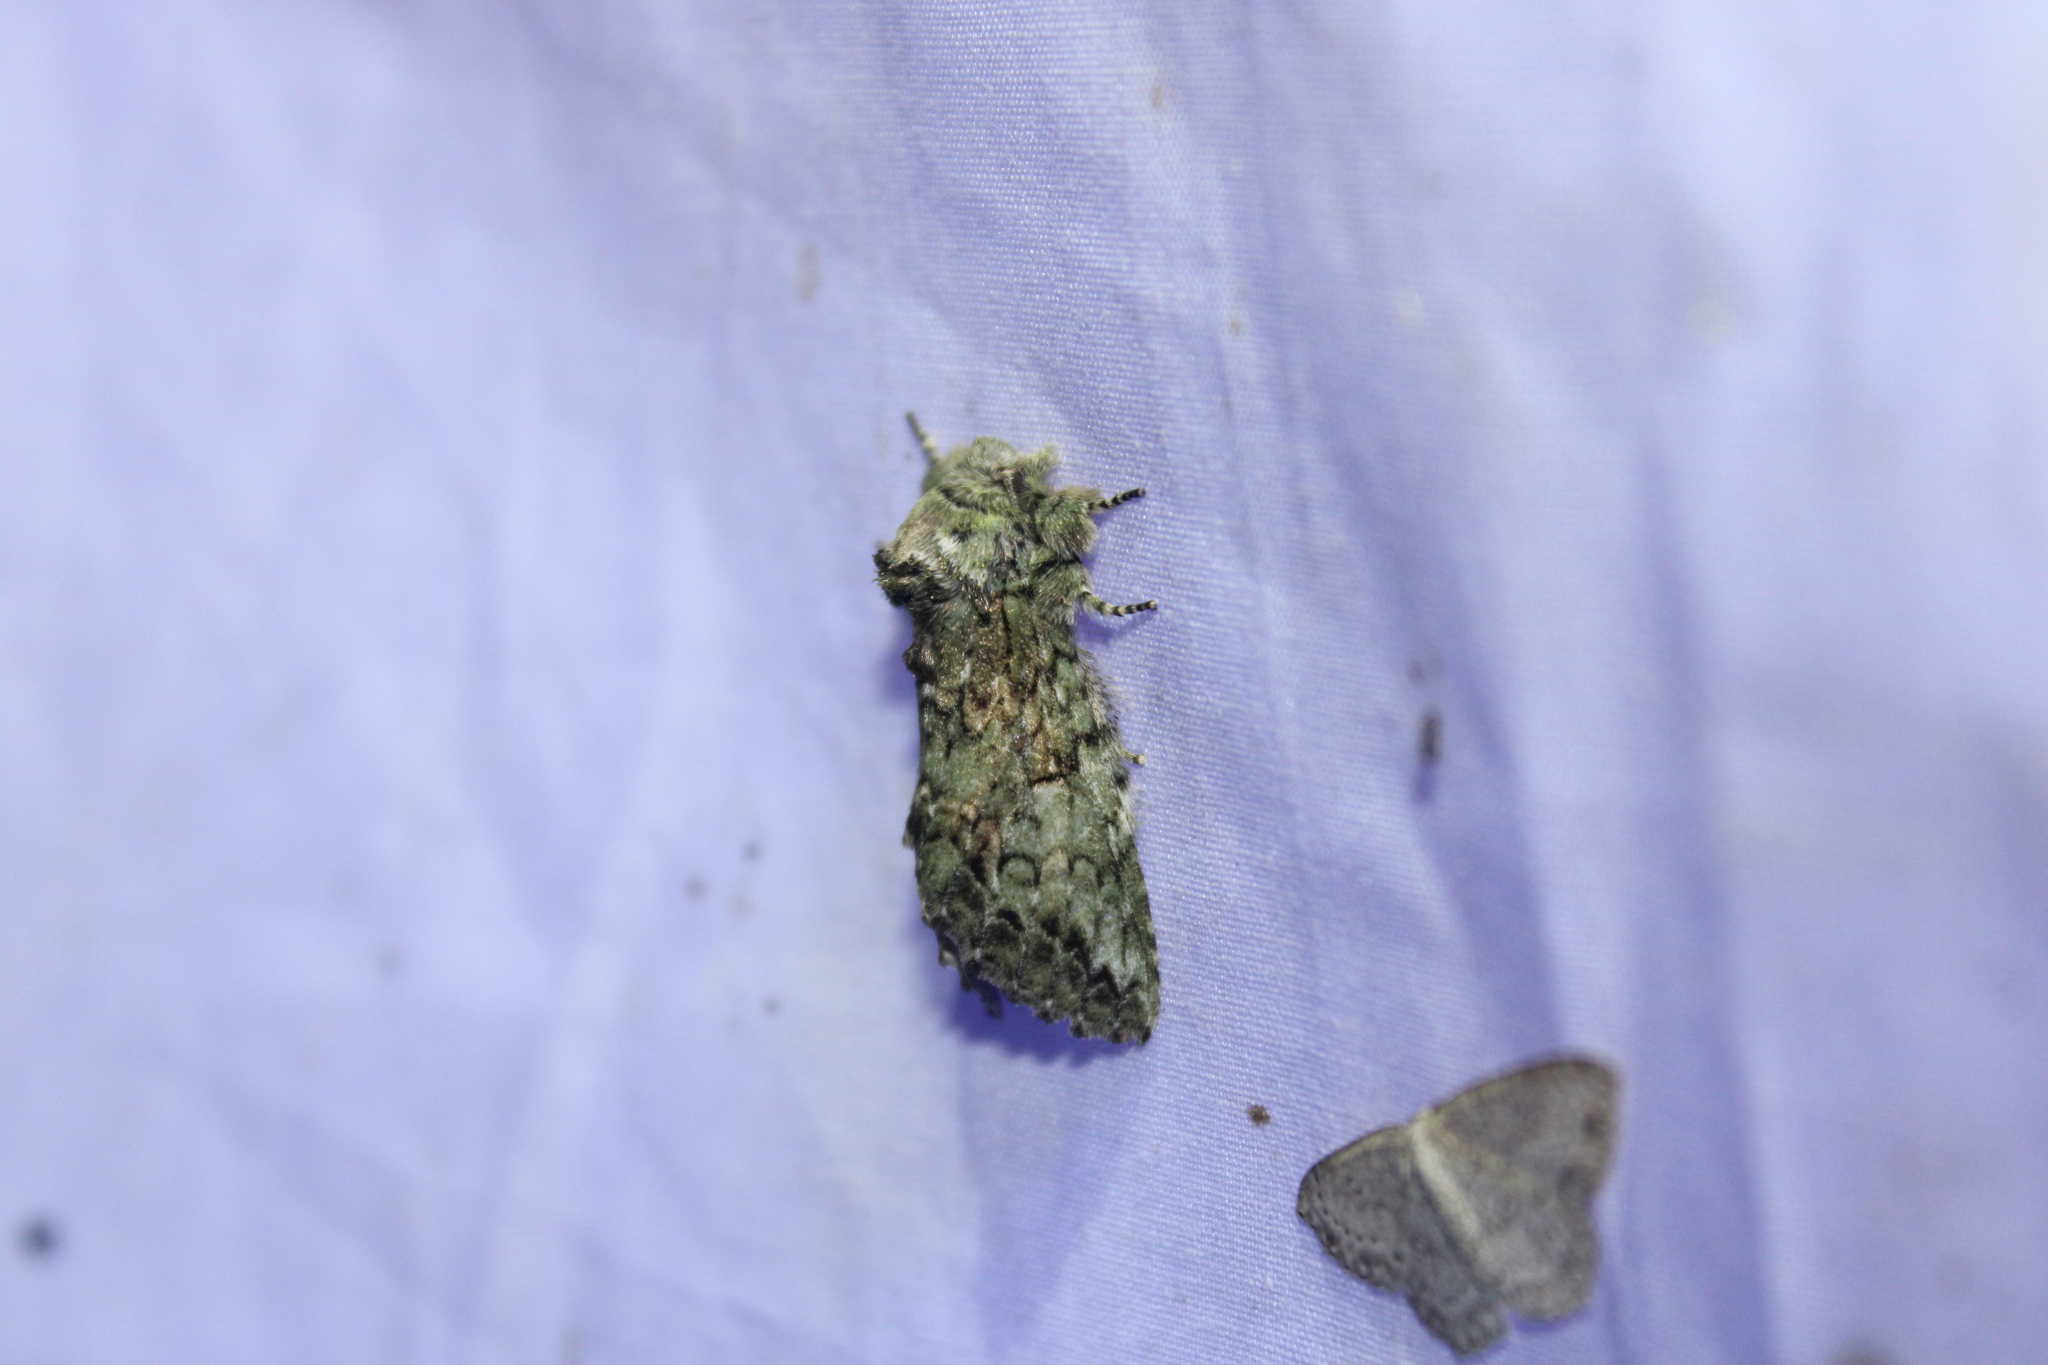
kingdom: Animalia
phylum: Arthropoda
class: Insecta
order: Lepidoptera
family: Notodontidae
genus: Heterocampa
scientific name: Heterocampa
